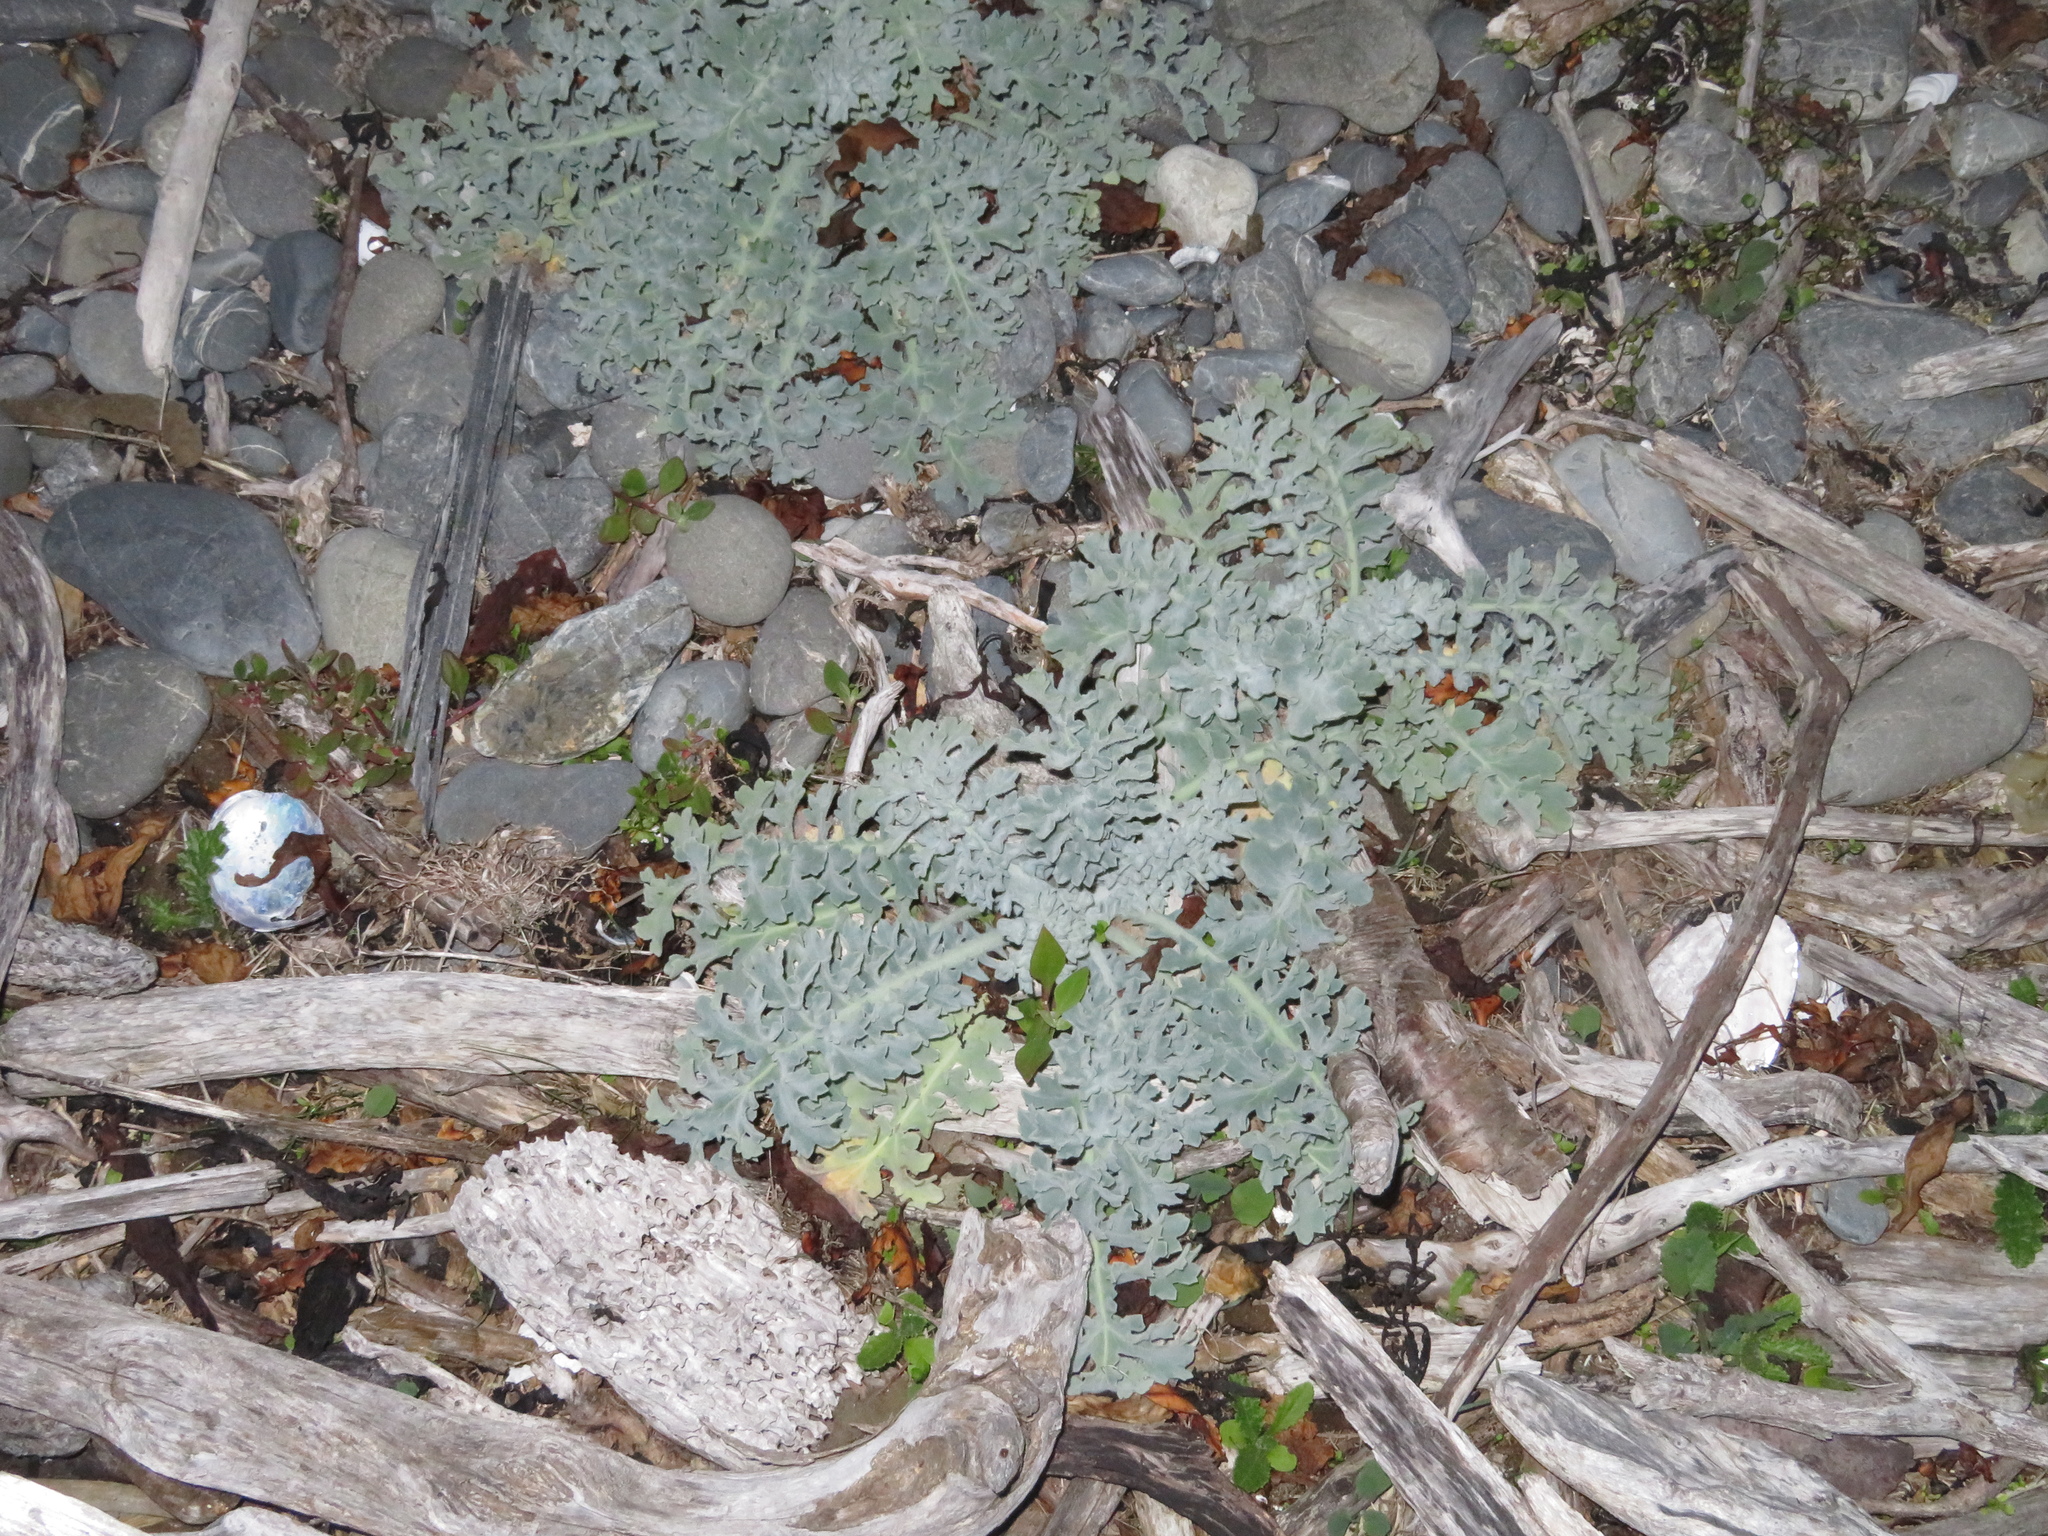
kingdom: Plantae
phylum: Tracheophyta
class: Magnoliopsida
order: Ranunculales
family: Papaveraceae
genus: Glaucium
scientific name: Glaucium flavum
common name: Yellow horned-poppy
